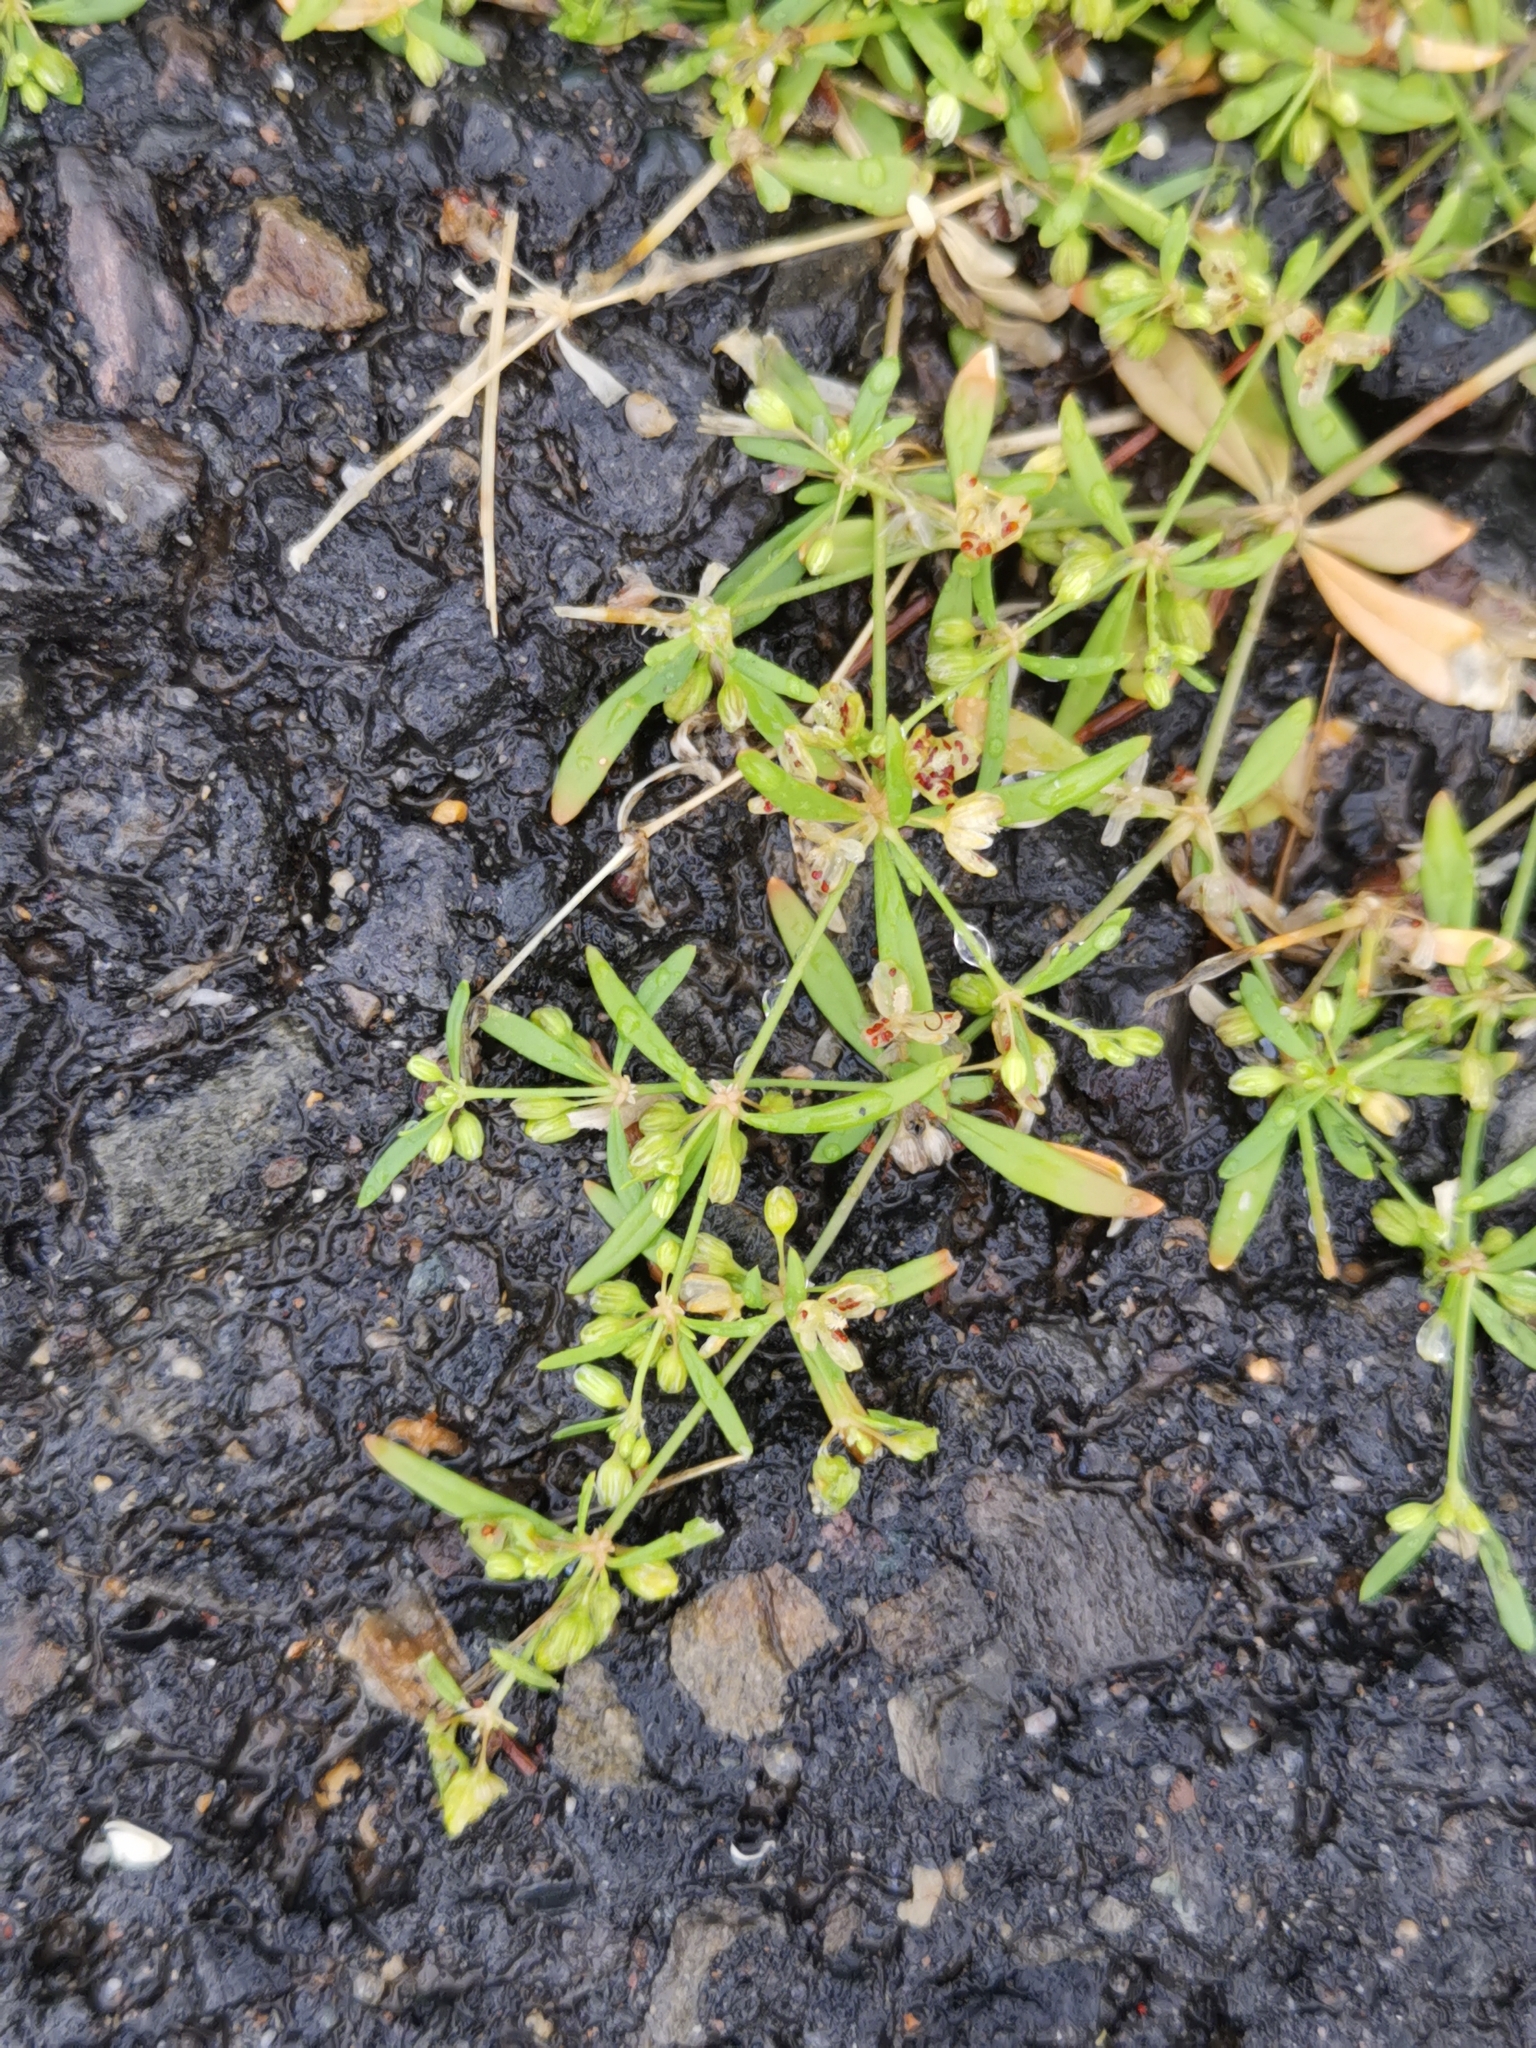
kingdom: Plantae
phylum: Tracheophyta
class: Magnoliopsida
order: Caryophyllales
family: Molluginaceae
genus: Mollugo
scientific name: Mollugo verticillata
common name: Green carpetweed
